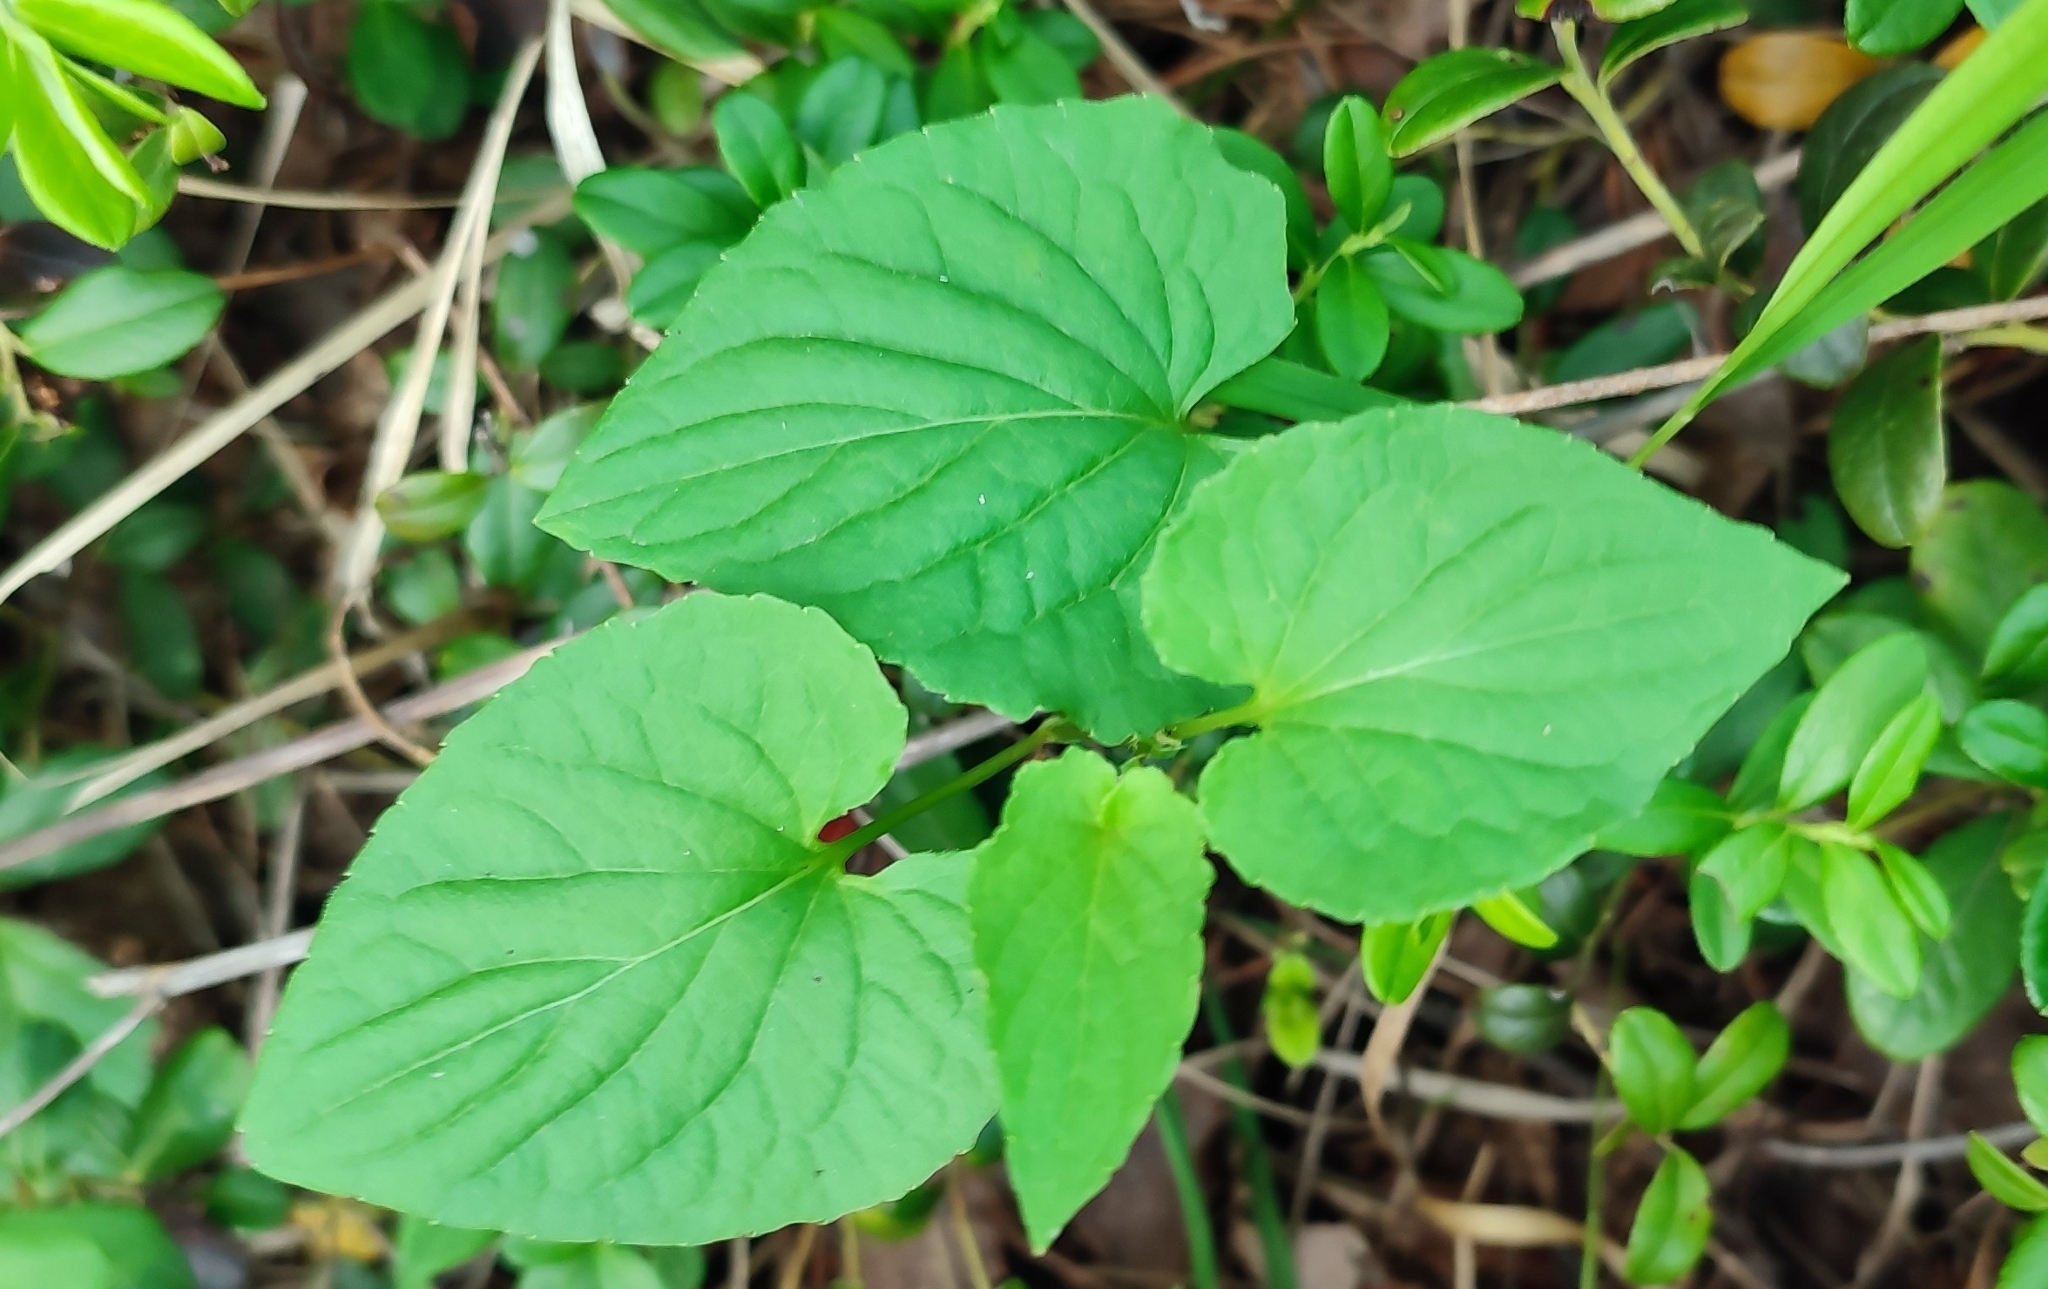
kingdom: Plantae
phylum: Tracheophyta
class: Magnoliopsida
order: Malpighiales
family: Violaceae
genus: Viola
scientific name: Viola
